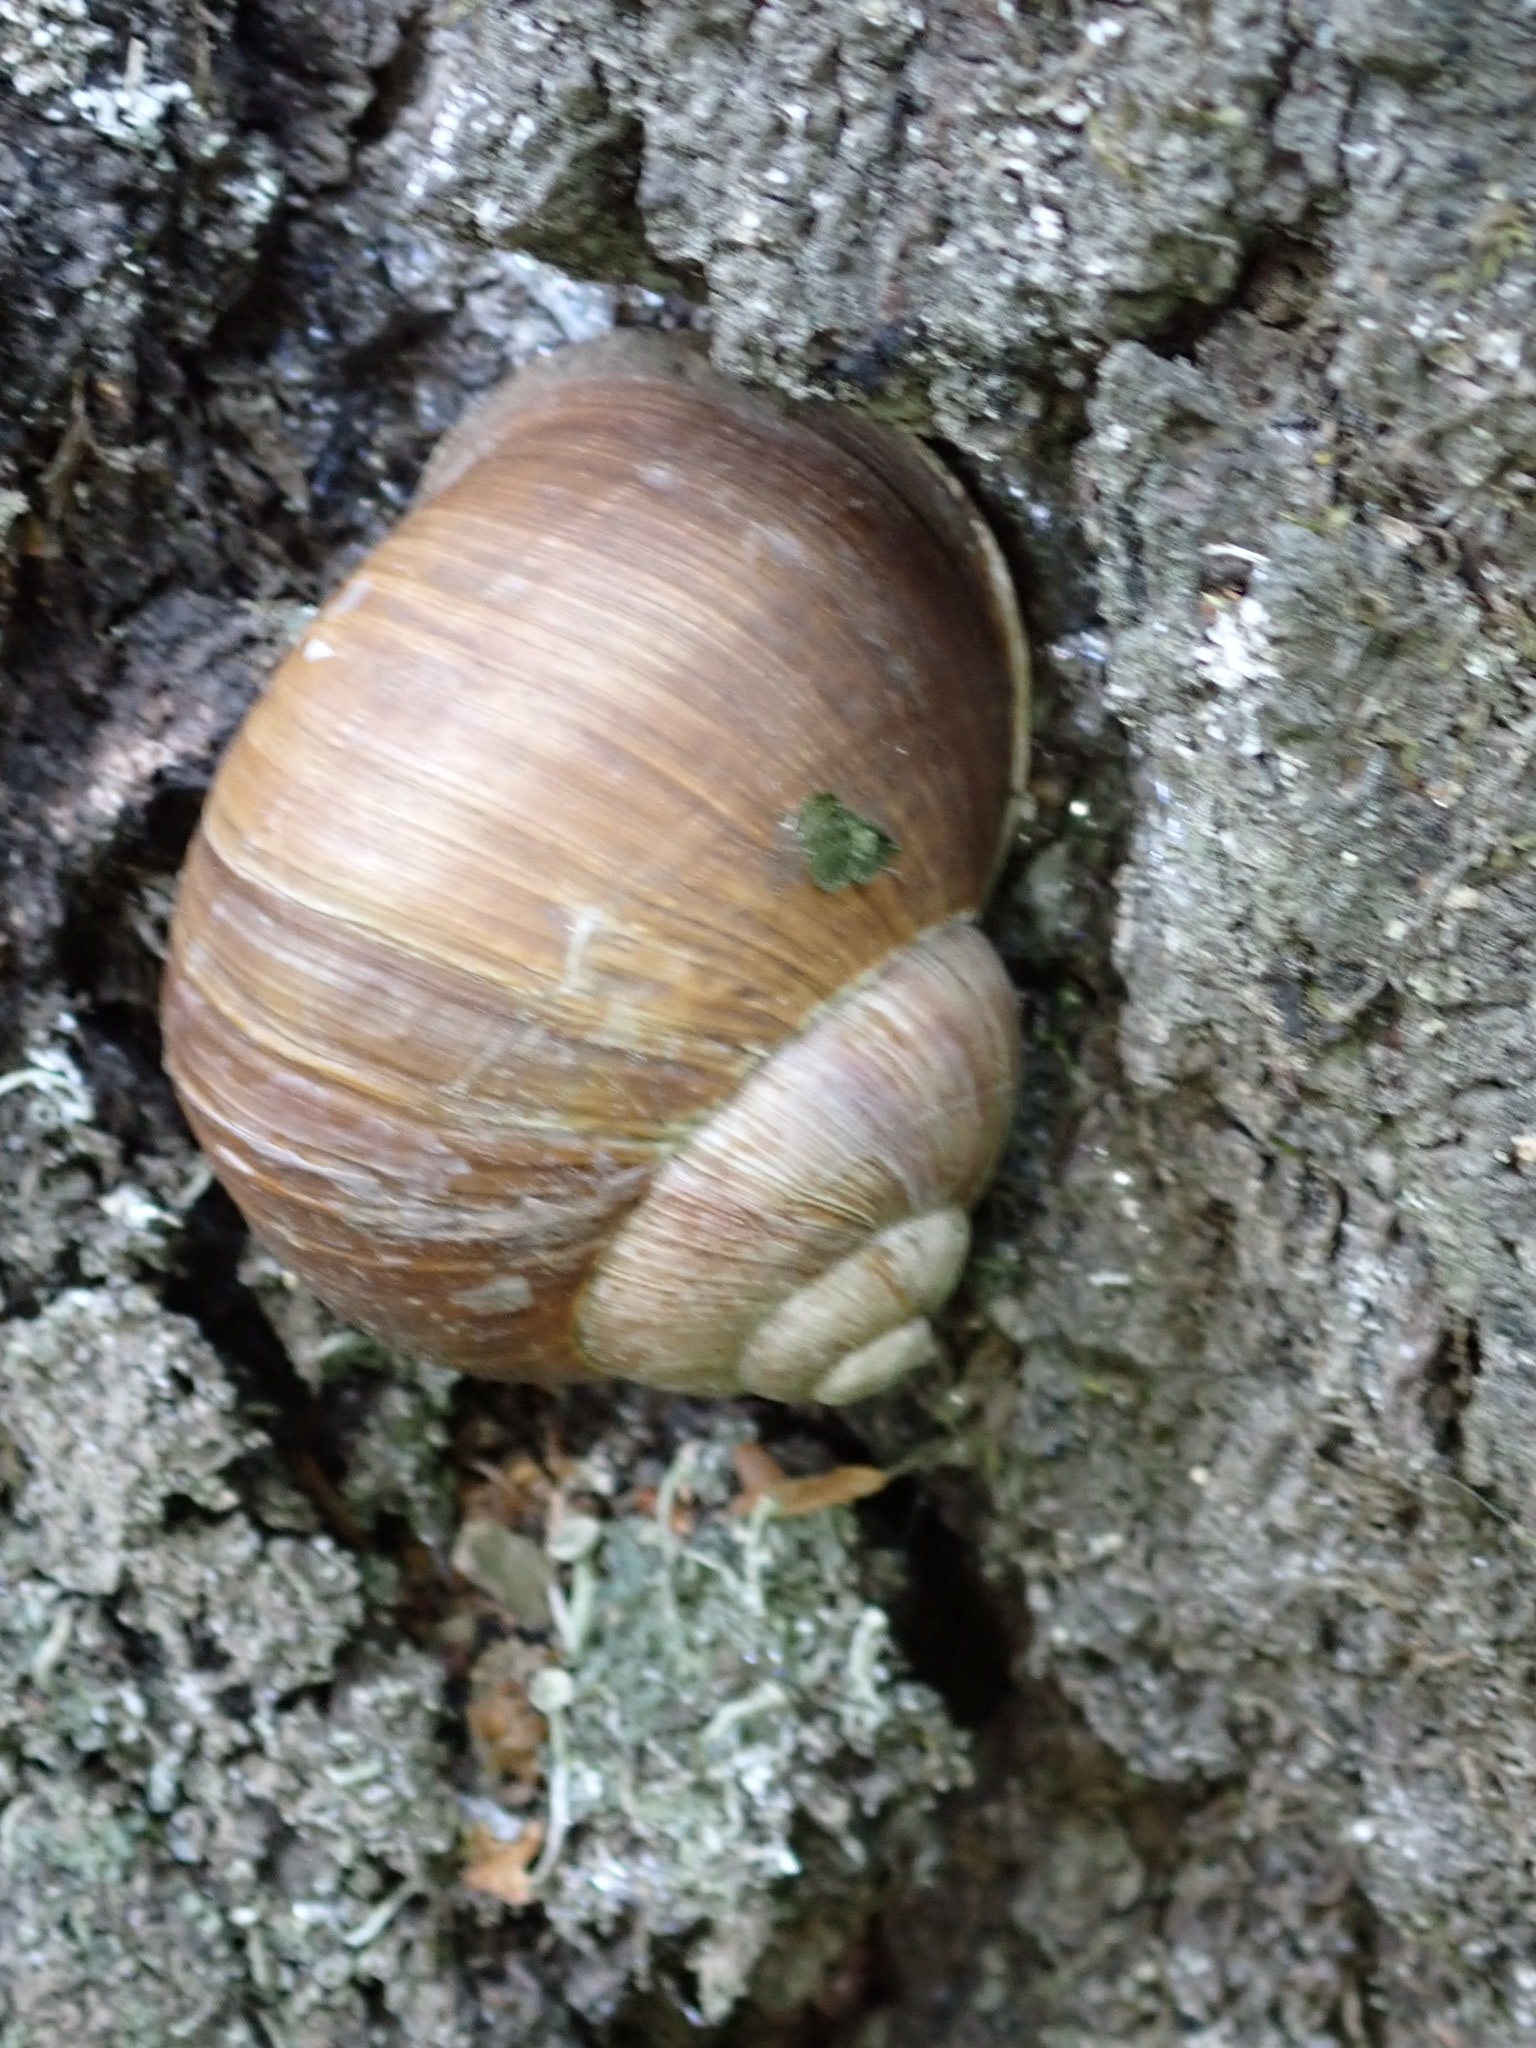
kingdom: Animalia
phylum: Mollusca
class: Gastropoda
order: Stylommatophora
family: Helicidae
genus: Helix
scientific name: Helix pomatia
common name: Roman snail
